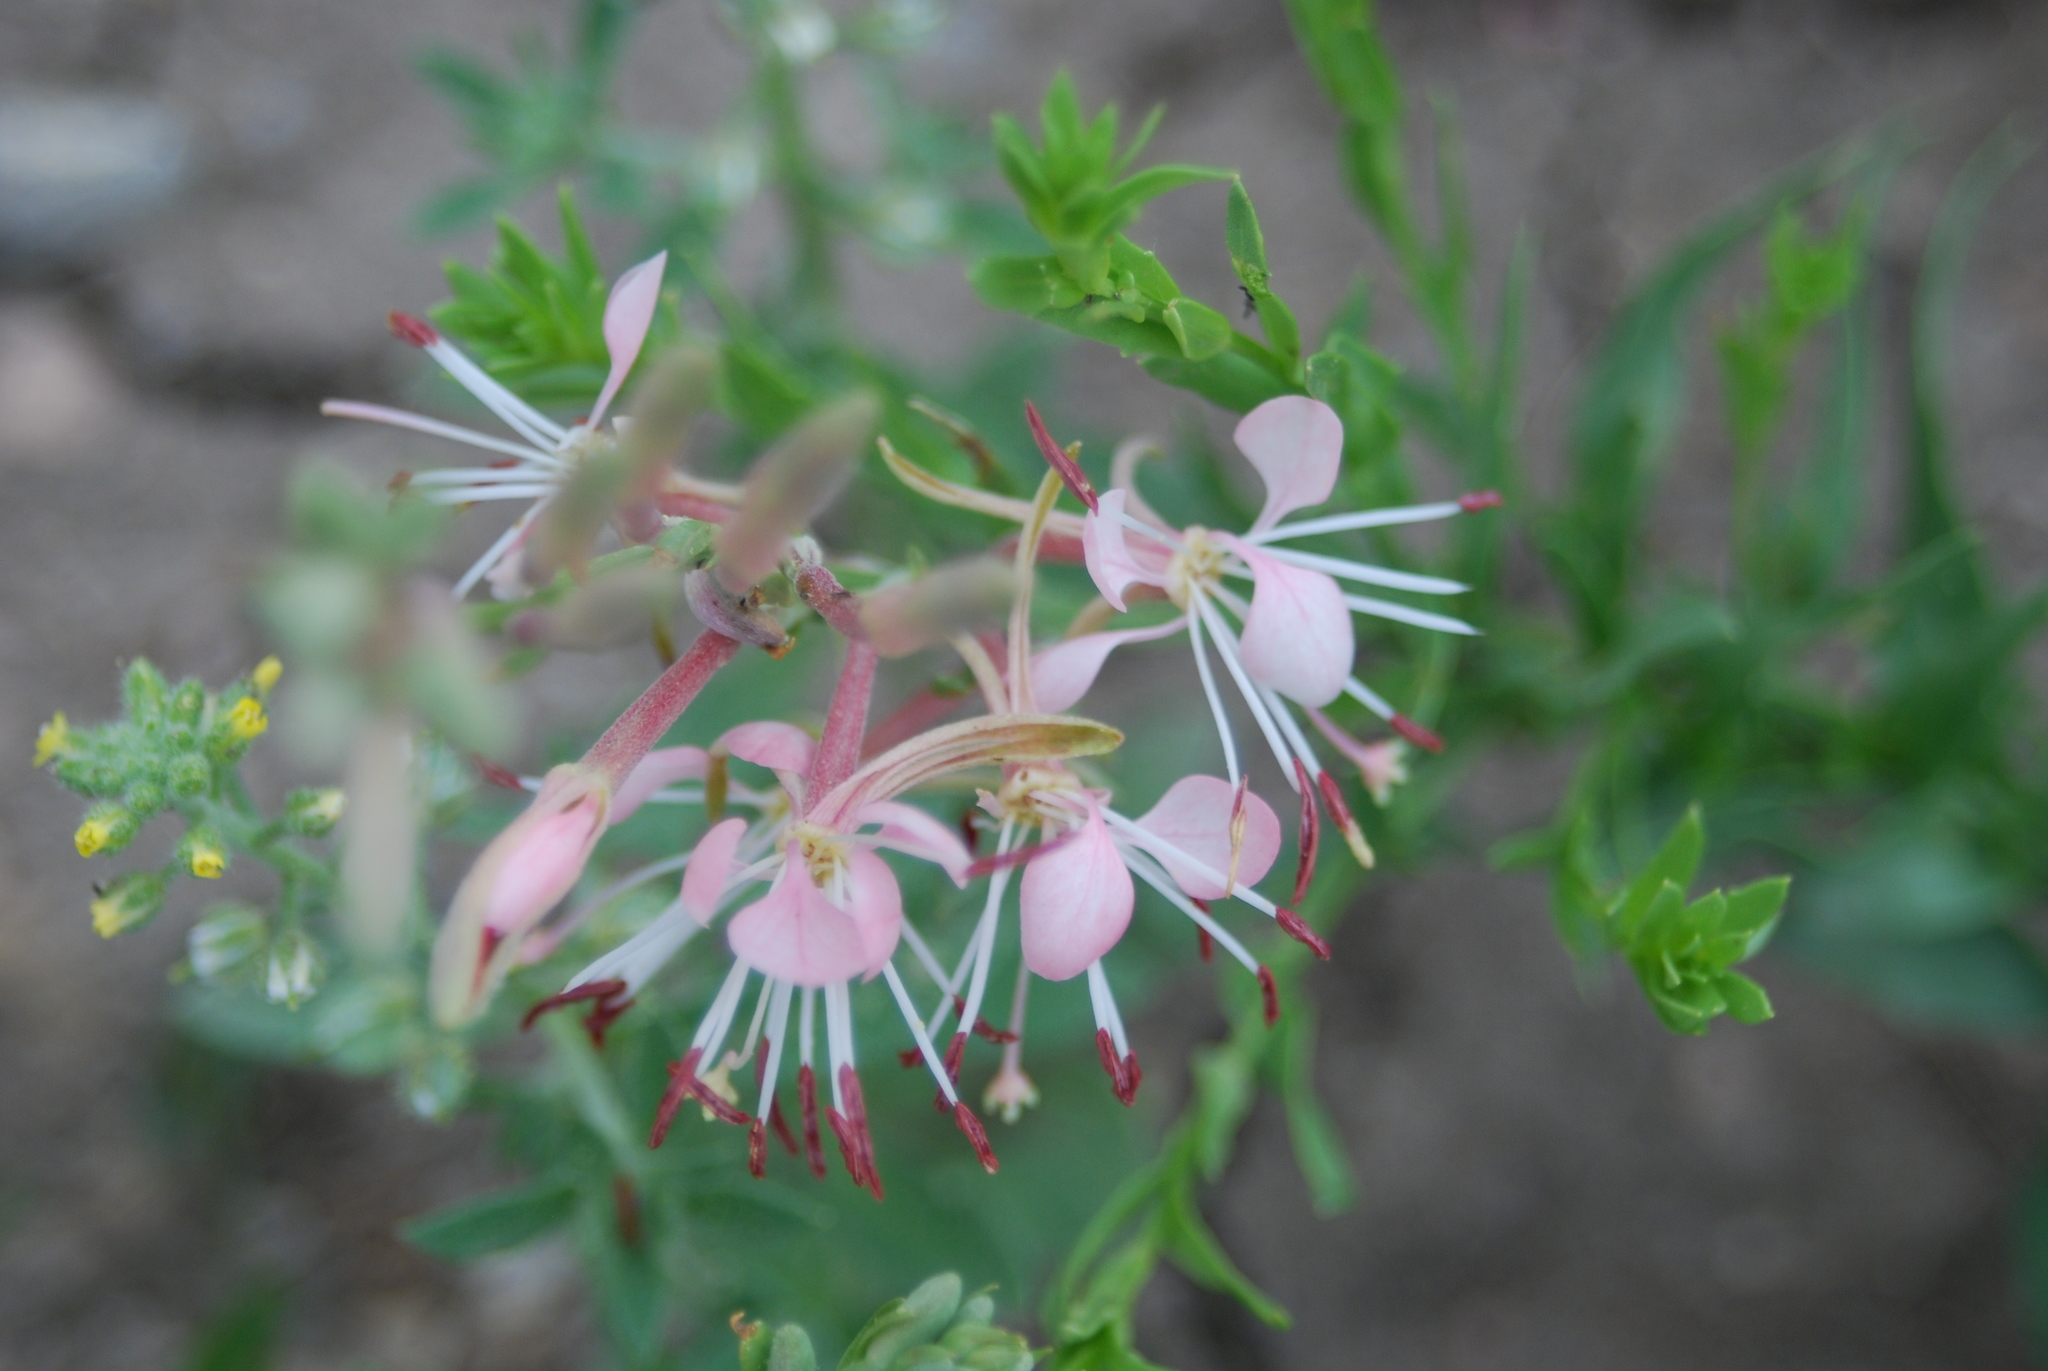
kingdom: Plantae
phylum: Tracheophyta
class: Magnoliopsida
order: Myrtales
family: Onagraceae
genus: Oenothera
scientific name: Oenothera suffrutescens
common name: Scarlet beeblossom
